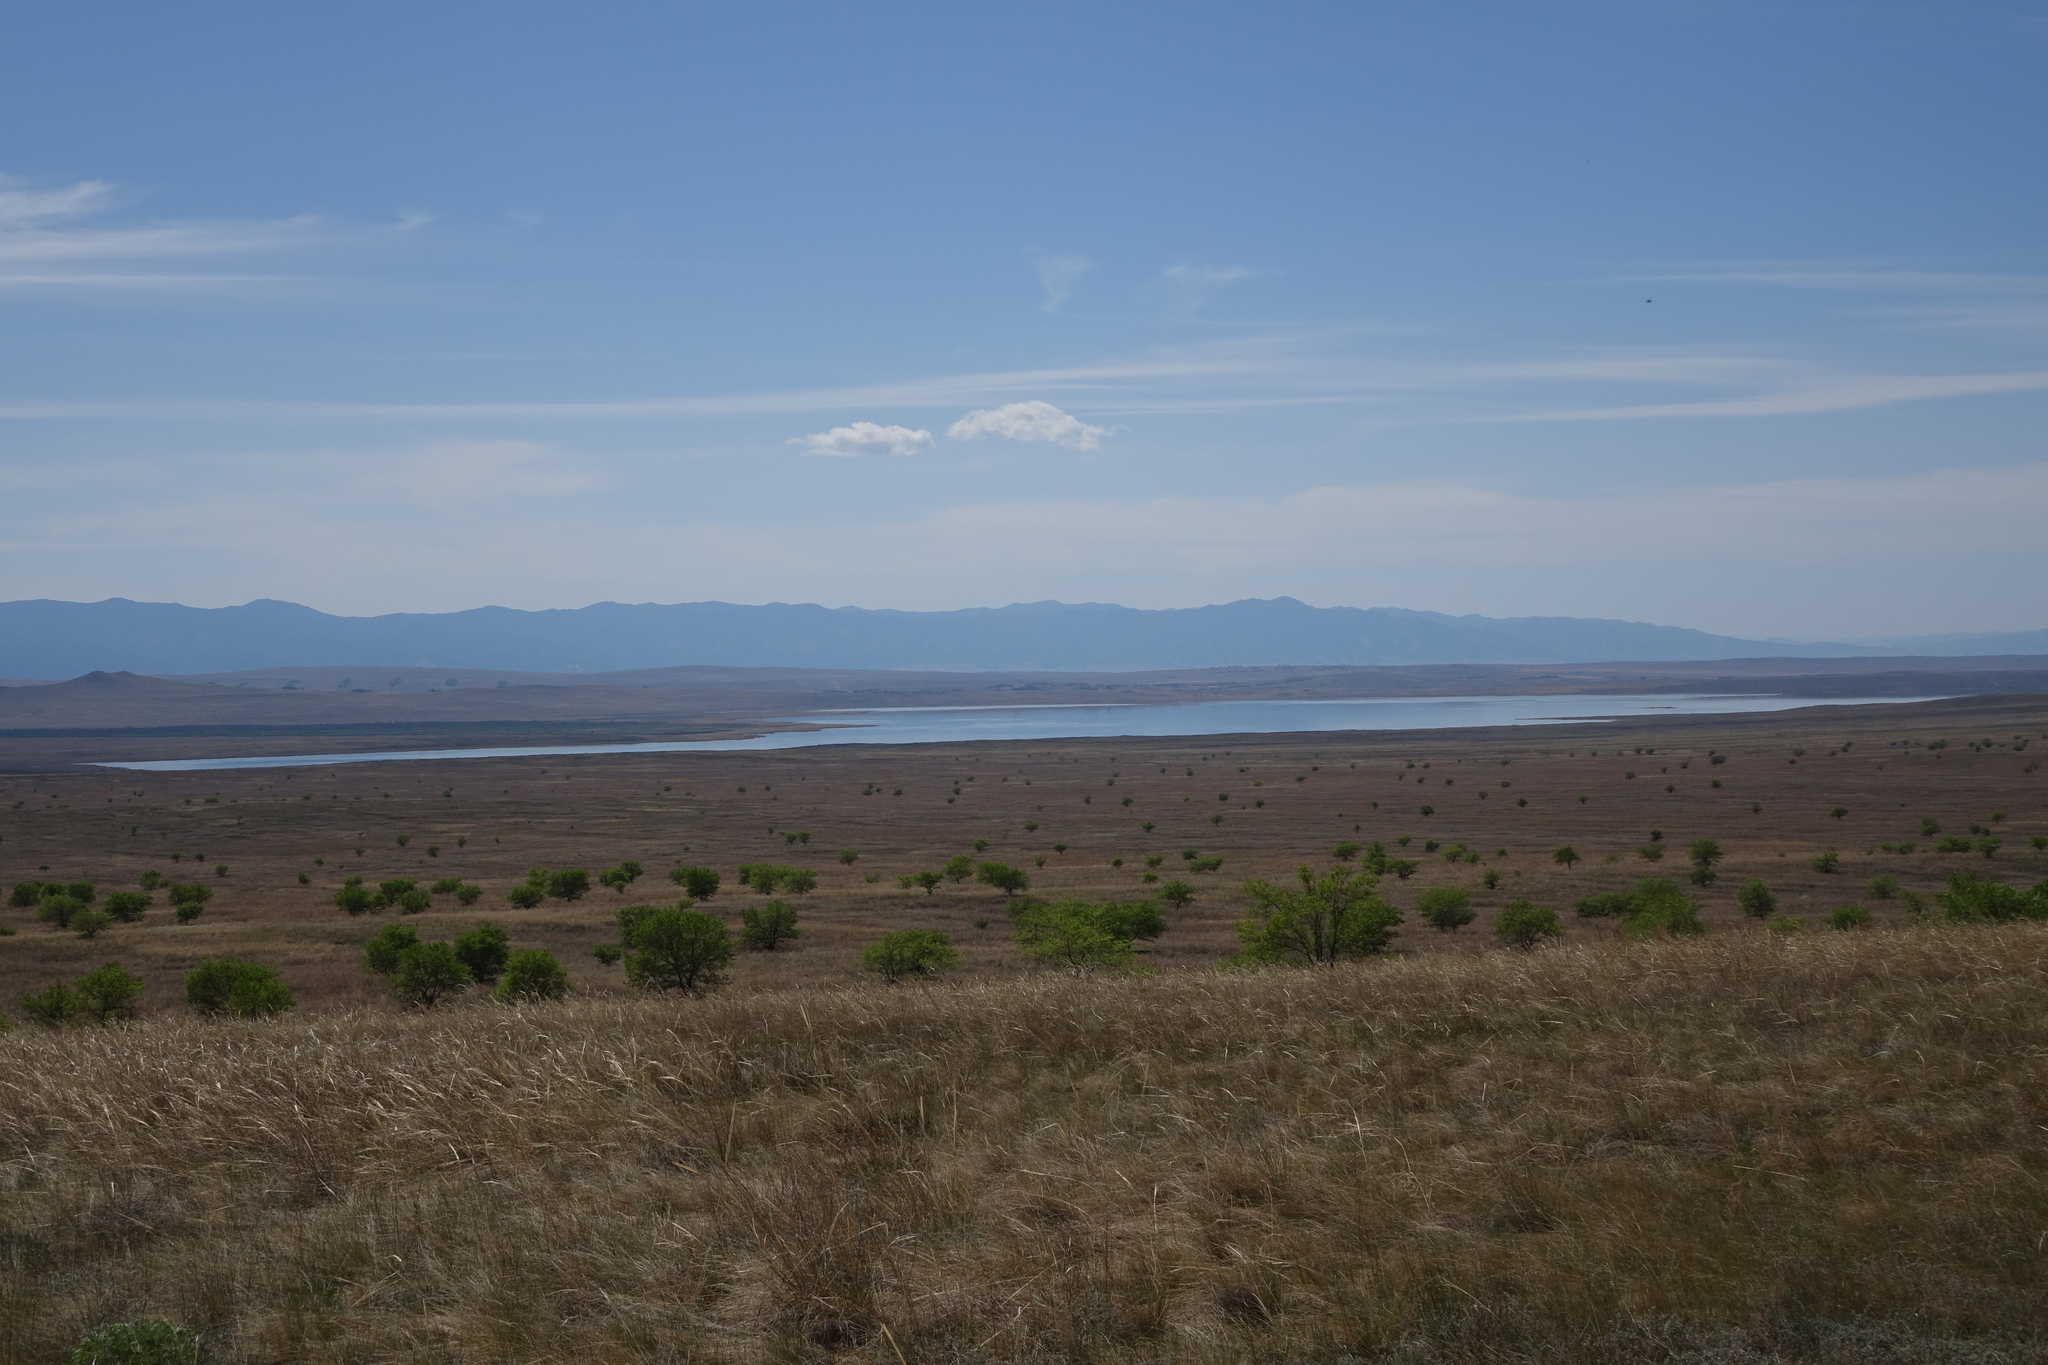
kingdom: Plantae
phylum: Tracheophyta
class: Magnoliopsida
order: Rosales
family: Ulmaceae
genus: Ulmus
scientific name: Ulmus pumila
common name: Siberian elm
